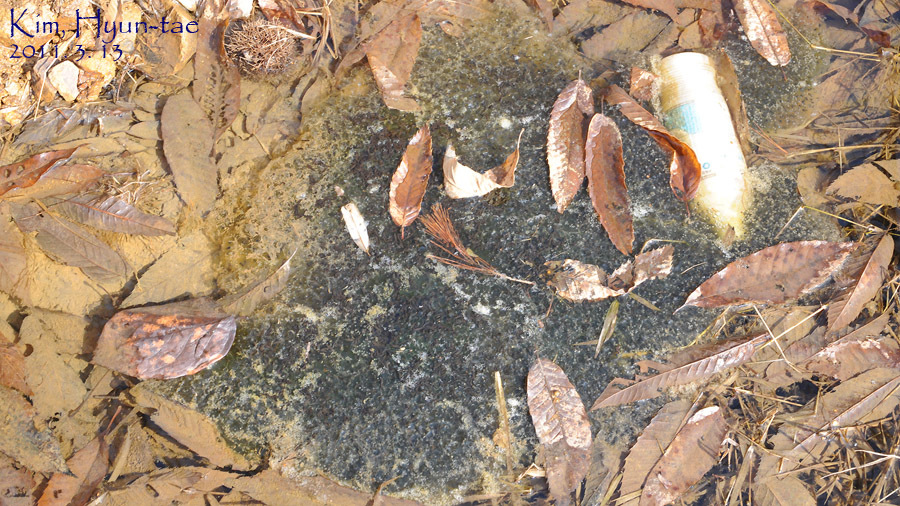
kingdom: Animalia
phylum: Chordata
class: Amphibia
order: Anura
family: Ranidae
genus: Rana
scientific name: Rana uenoi
